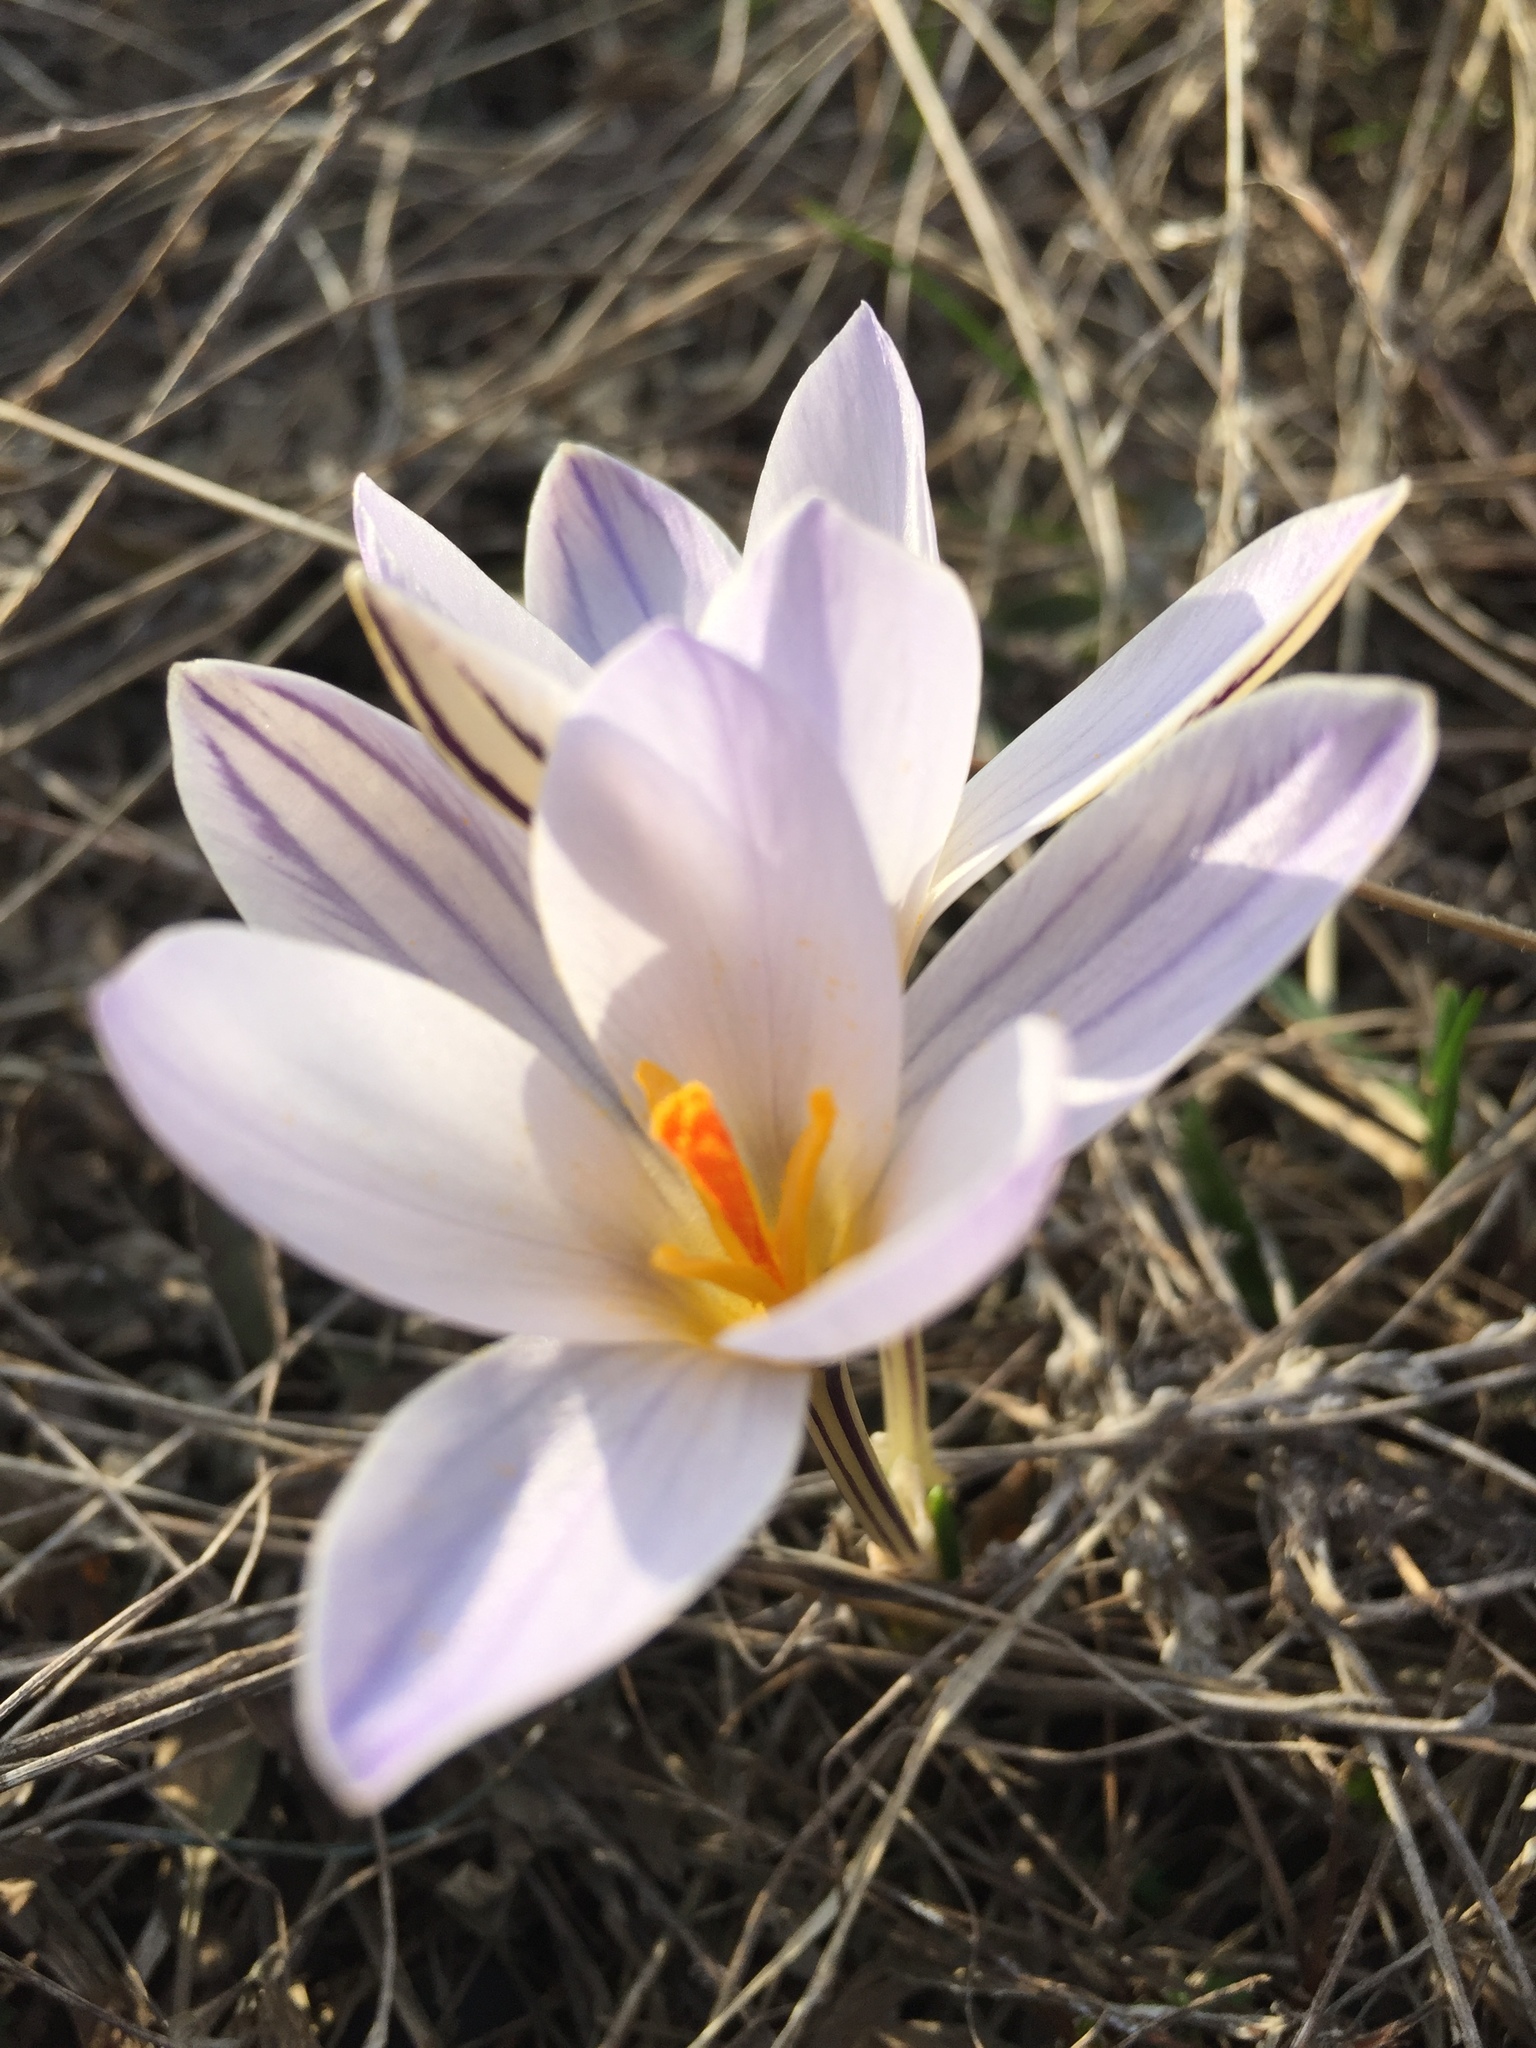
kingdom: Plantae
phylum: Tracheophyta
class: Liliopsida
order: Asparagales
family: Iridaceae
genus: Crocus
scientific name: Crocus reticulatus
